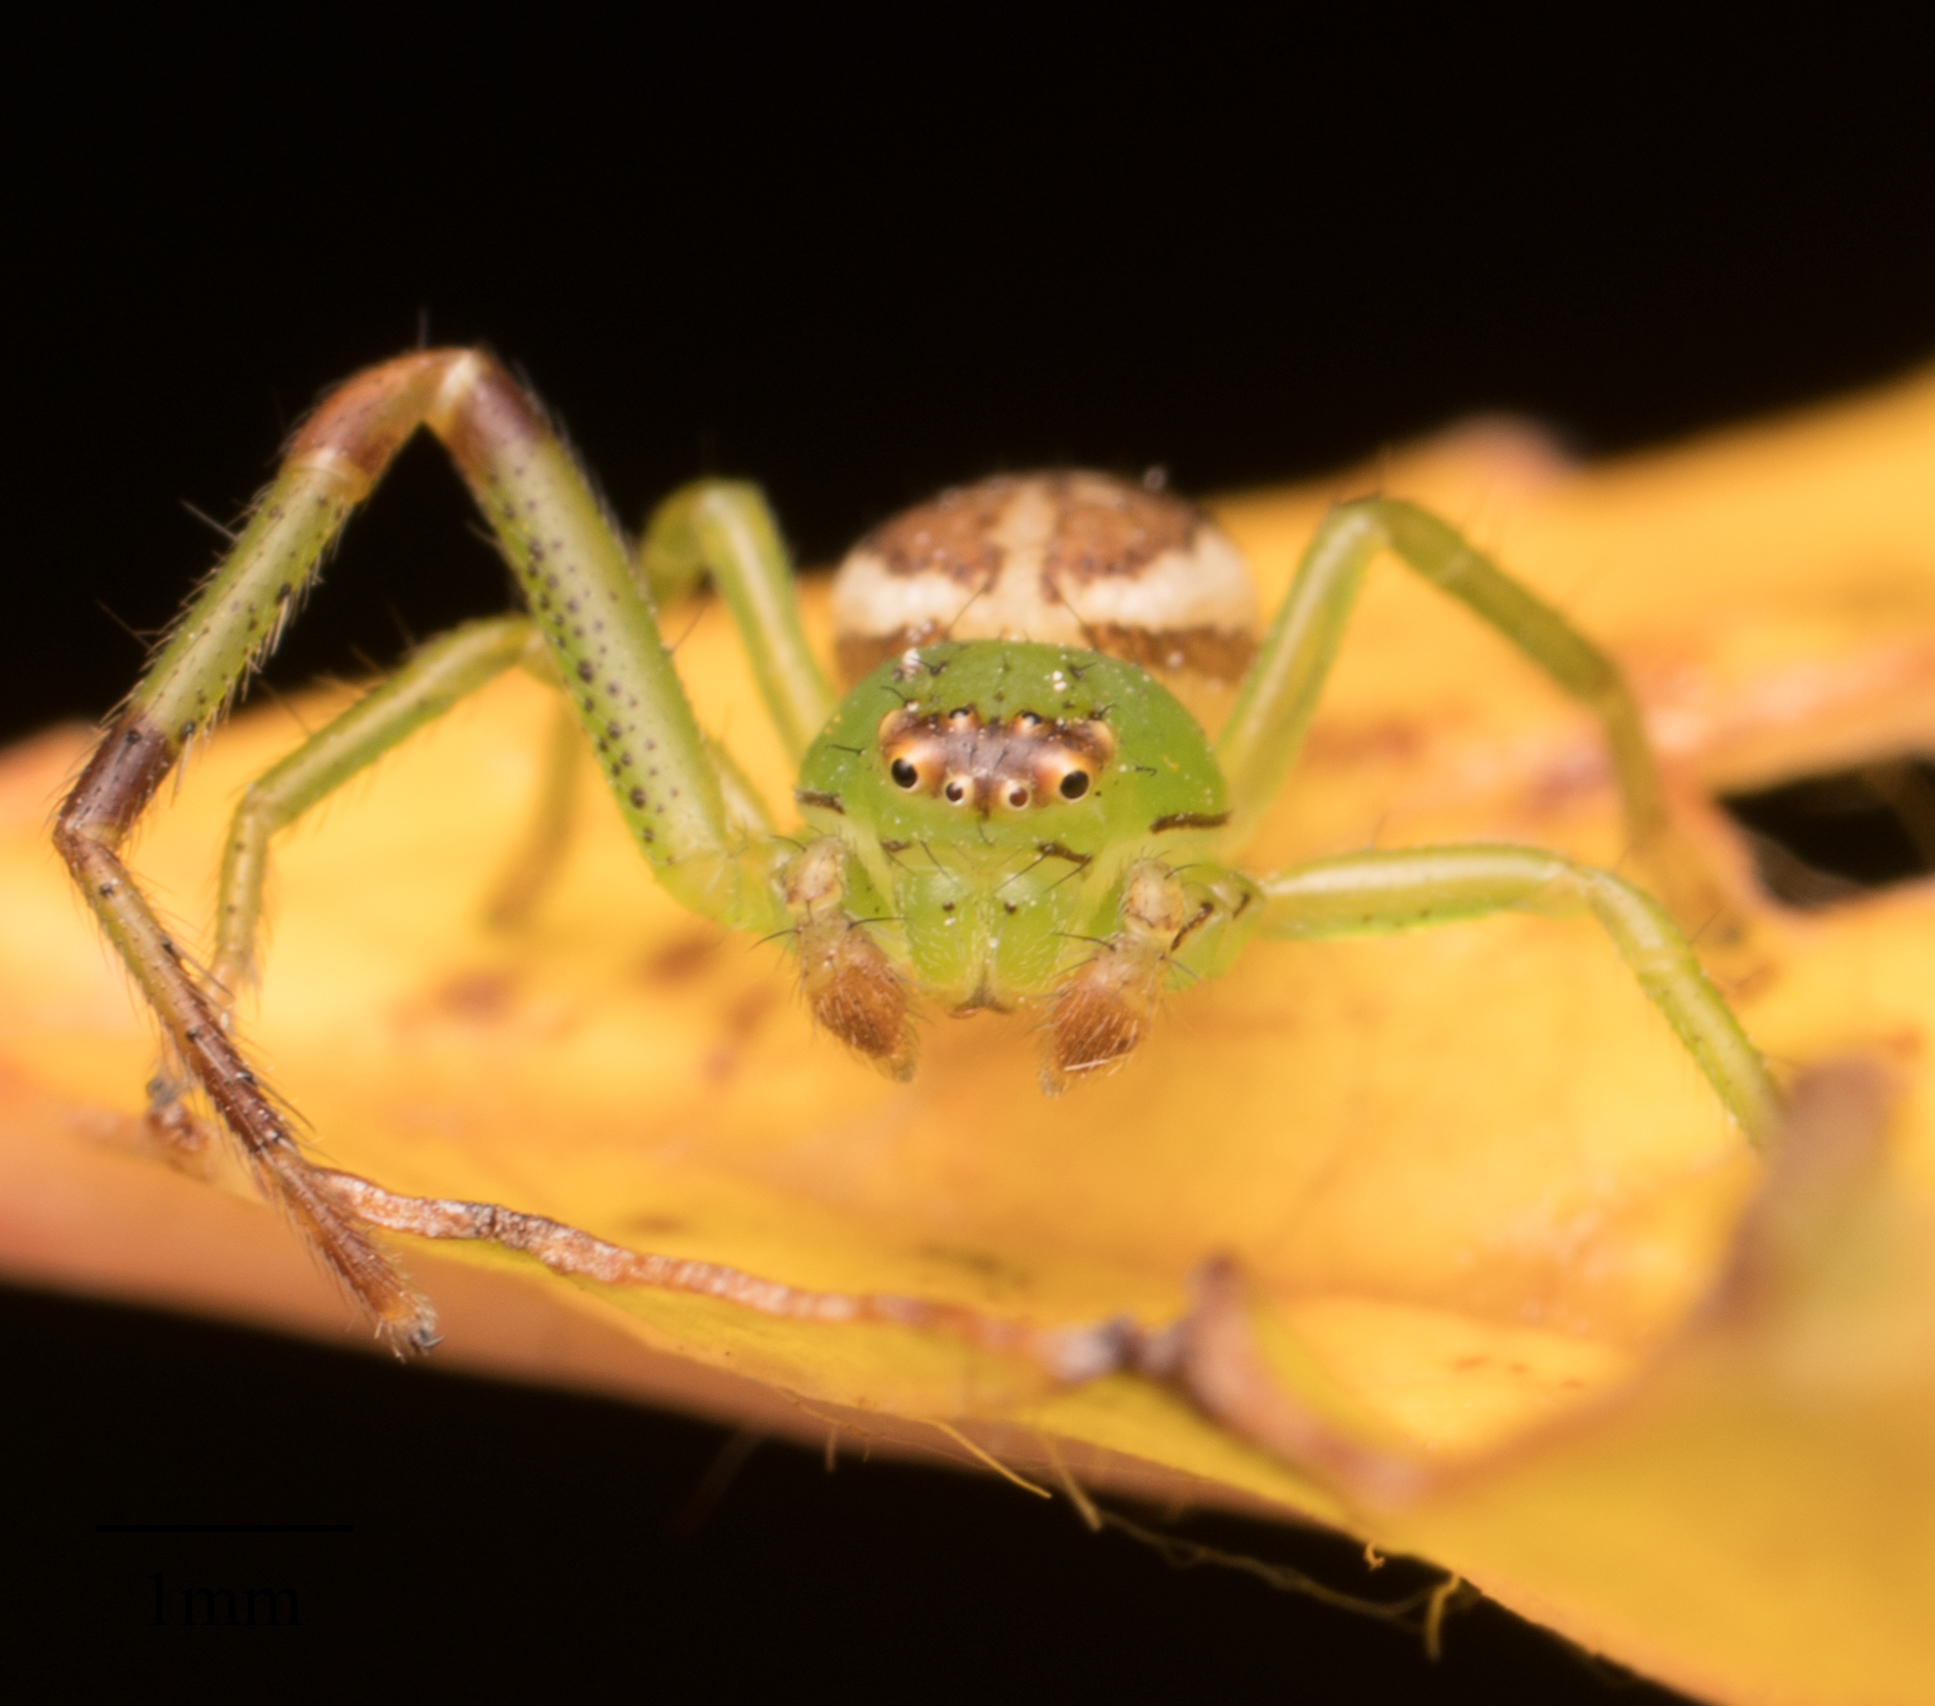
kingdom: Animalia
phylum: Arthropoda
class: Arachnida
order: Araneae
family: Thomisidae
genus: Diaea
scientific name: Diaea dorsata
